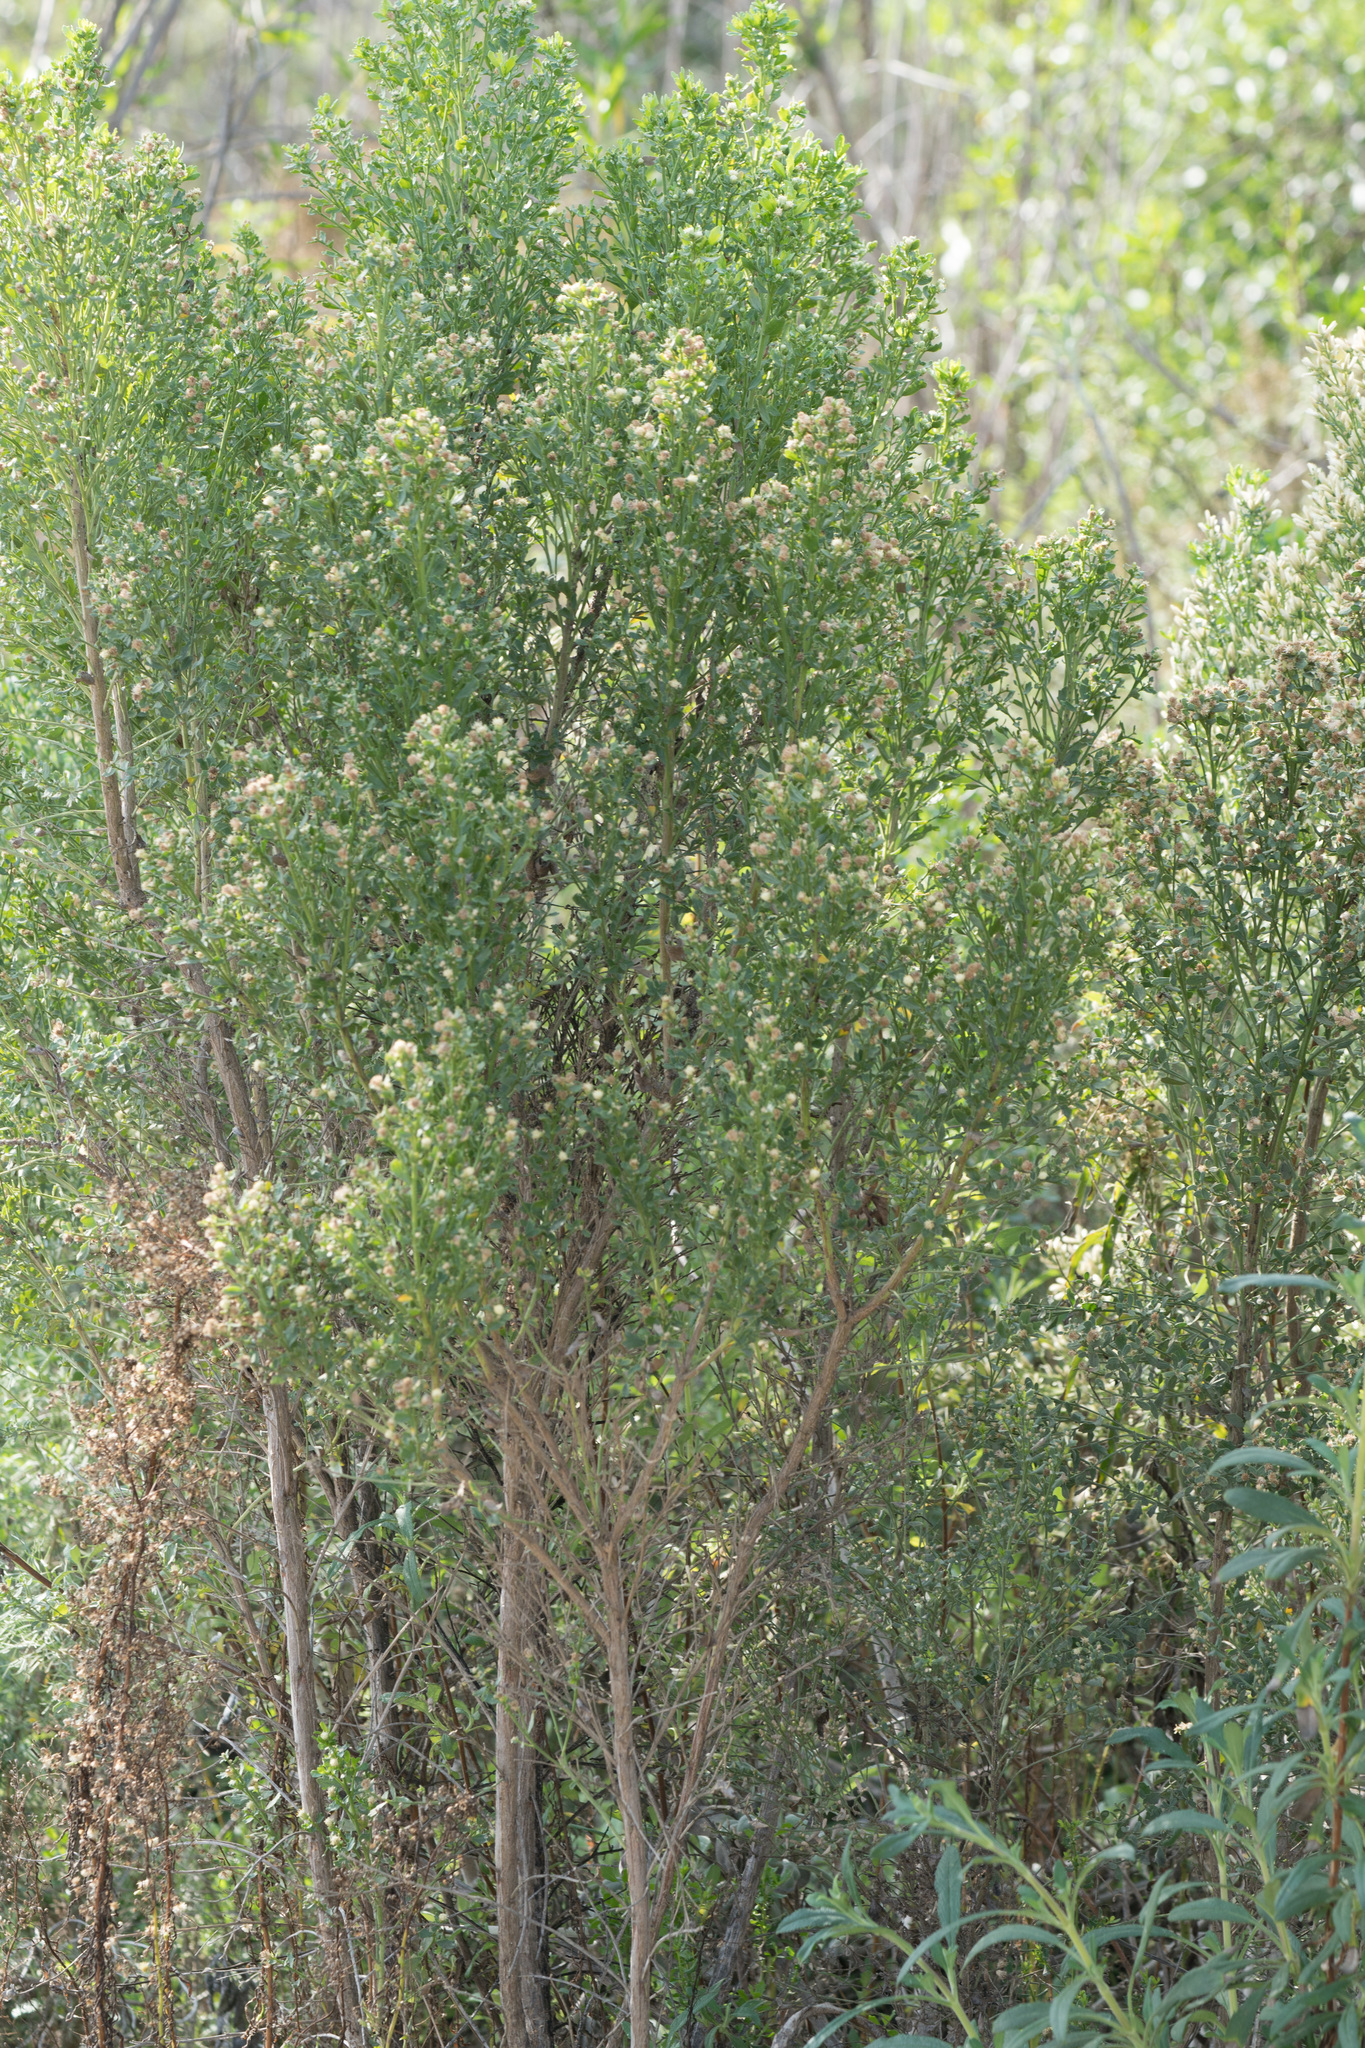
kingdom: Plantae
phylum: Tracheophyta
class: Magnoliopsida
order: Asterales
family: Asteraceae
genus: Baccharis
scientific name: Baccharis pilularis
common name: Coyotebrush
